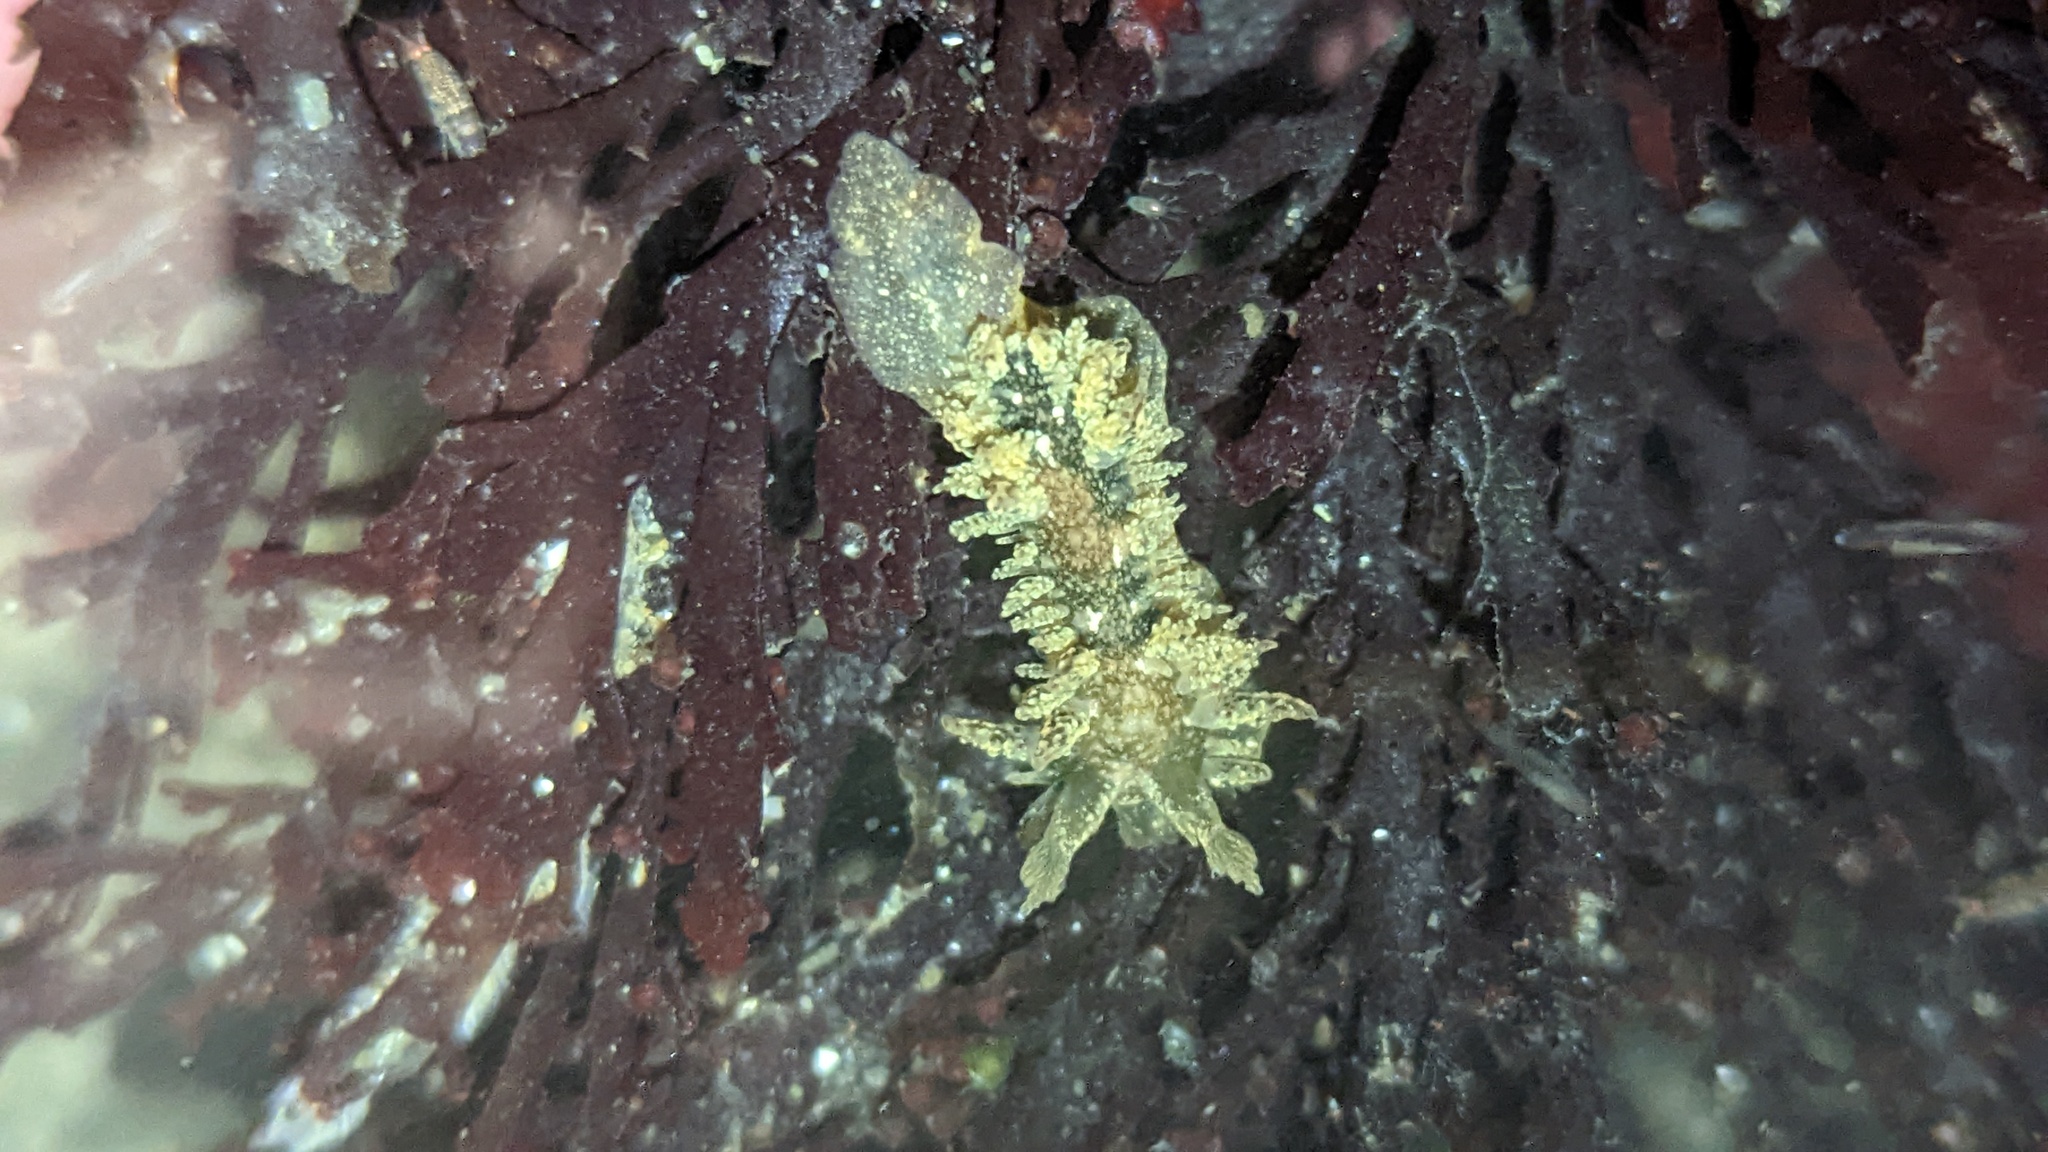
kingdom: Animalia
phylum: Mollusca
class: Gastropoda
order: Nudibranchia
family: Dironidae
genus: Dirona
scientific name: Dirona picta
